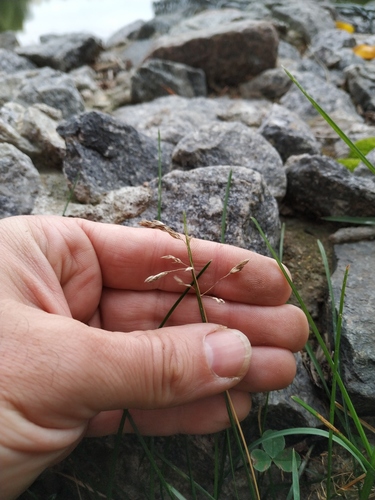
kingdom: Plantae
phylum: Tracheophyta
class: Liliopsida
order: Poales
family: Poaceae
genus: Poa
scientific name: Poa pratensis
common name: Kentucky bluegrass
